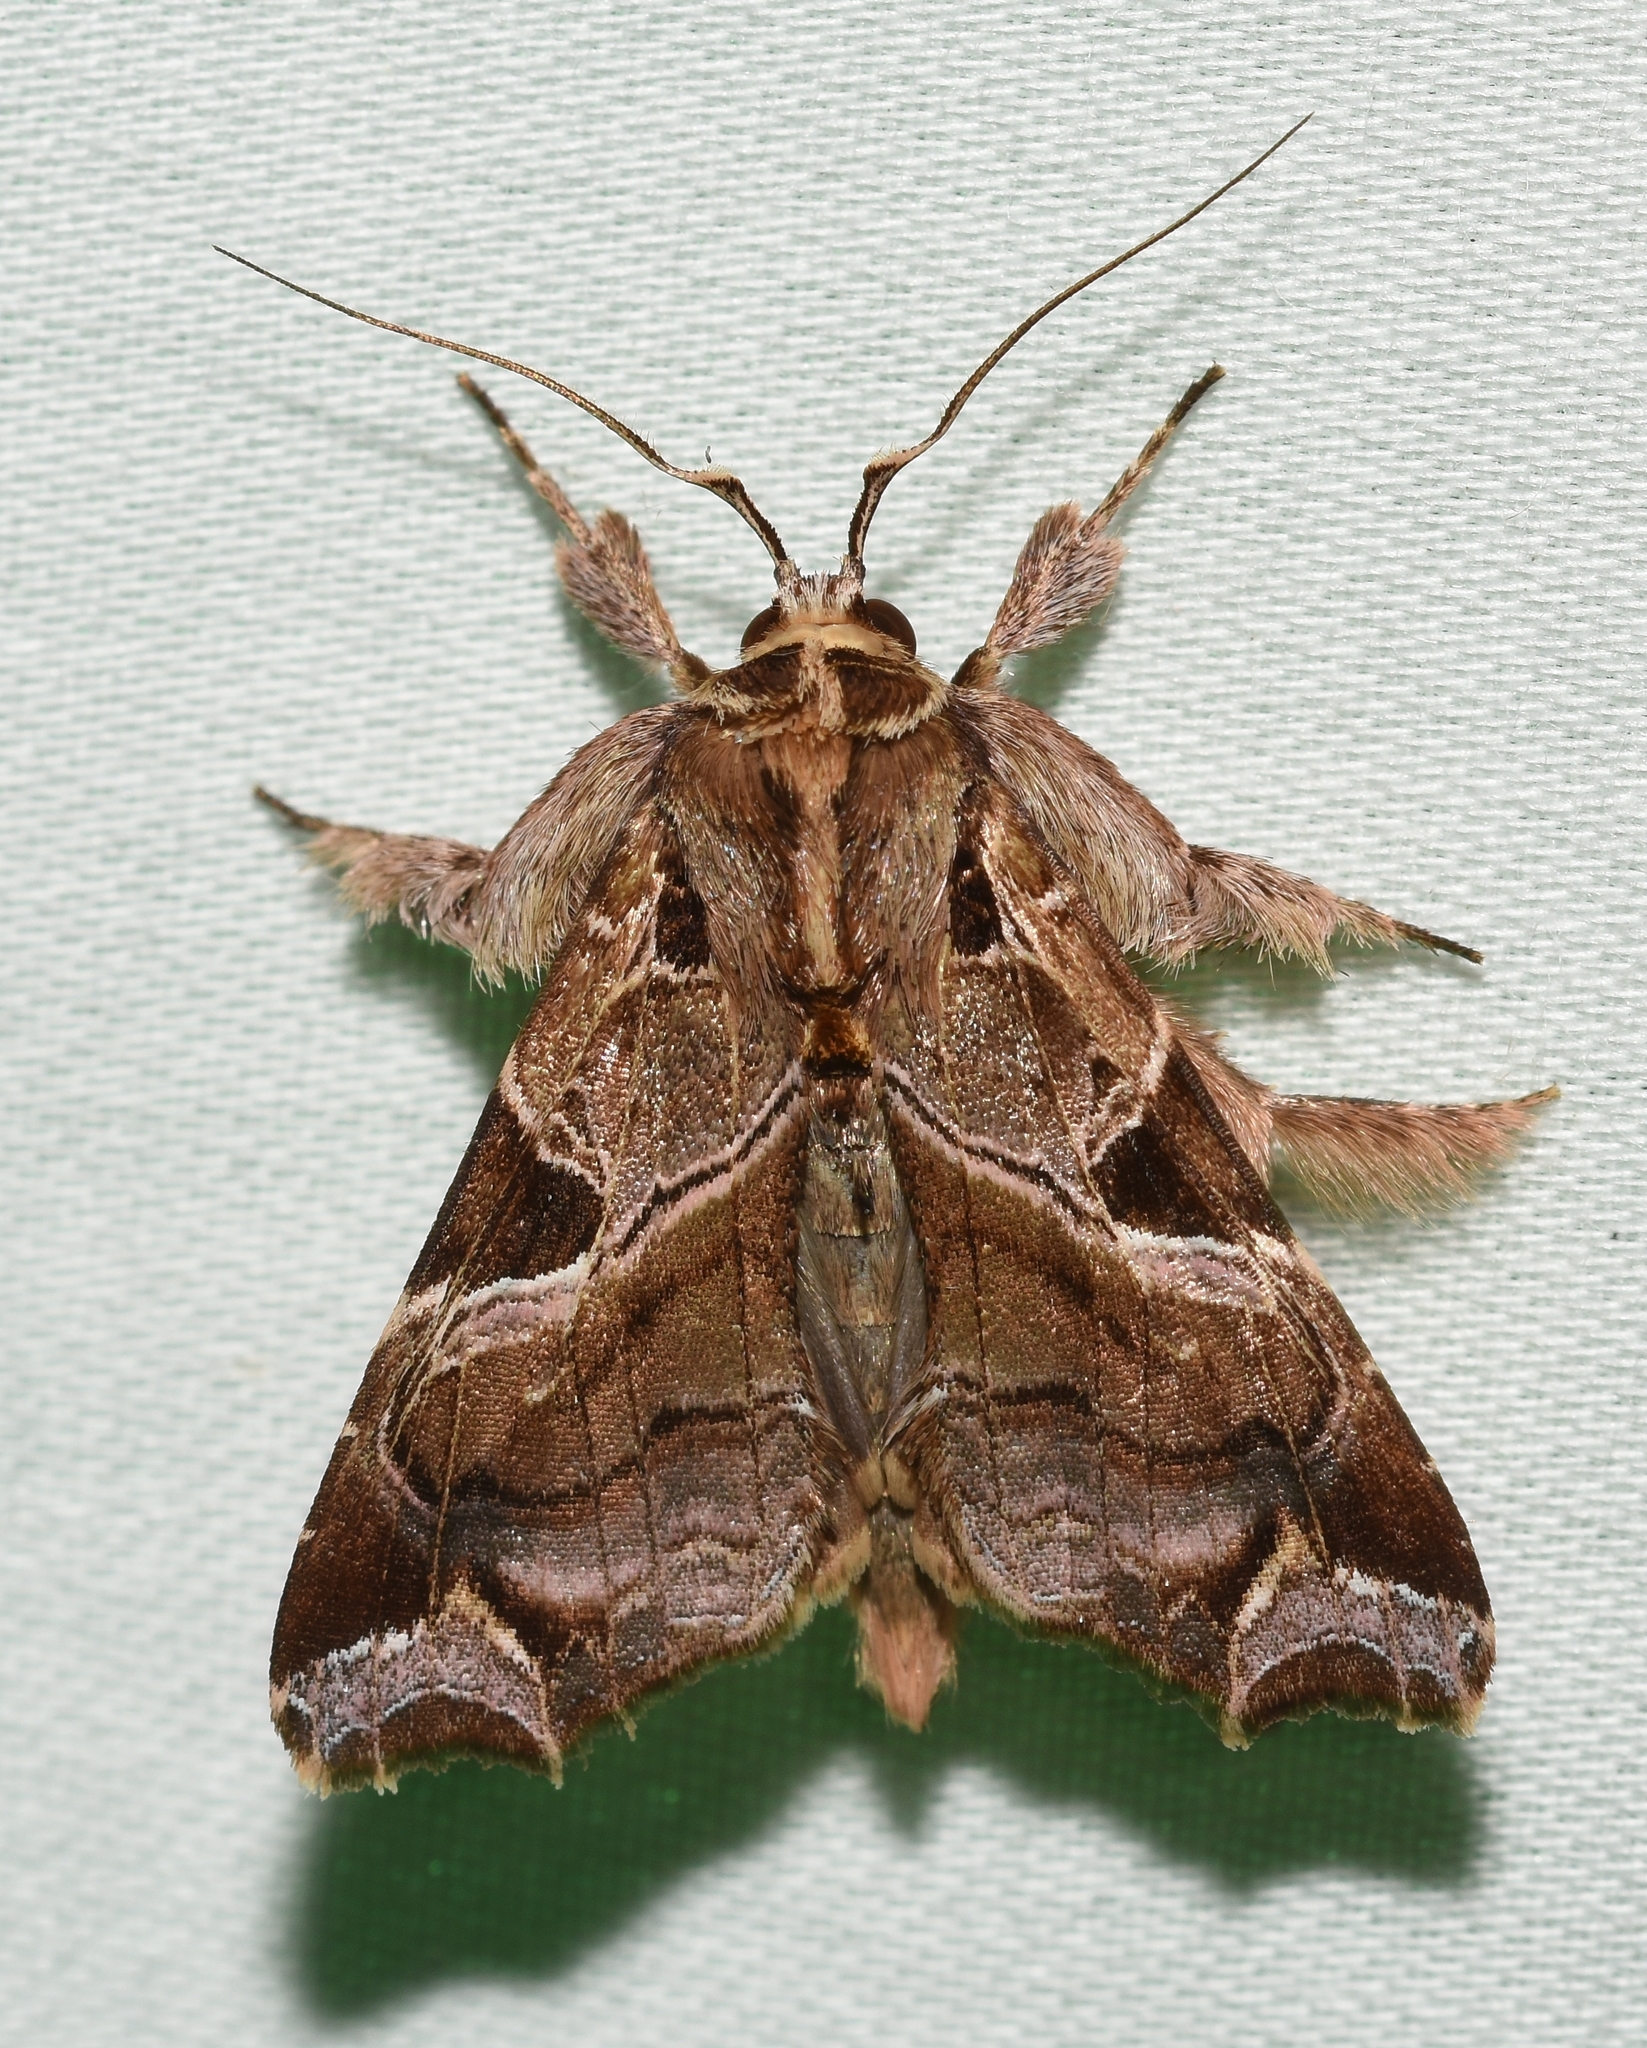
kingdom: Animalia
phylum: Arthropoda
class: Insecta
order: Lepidoptera
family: Noctuidae
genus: Callopistria
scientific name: Callopistria floridensis
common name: Florida fern moth
